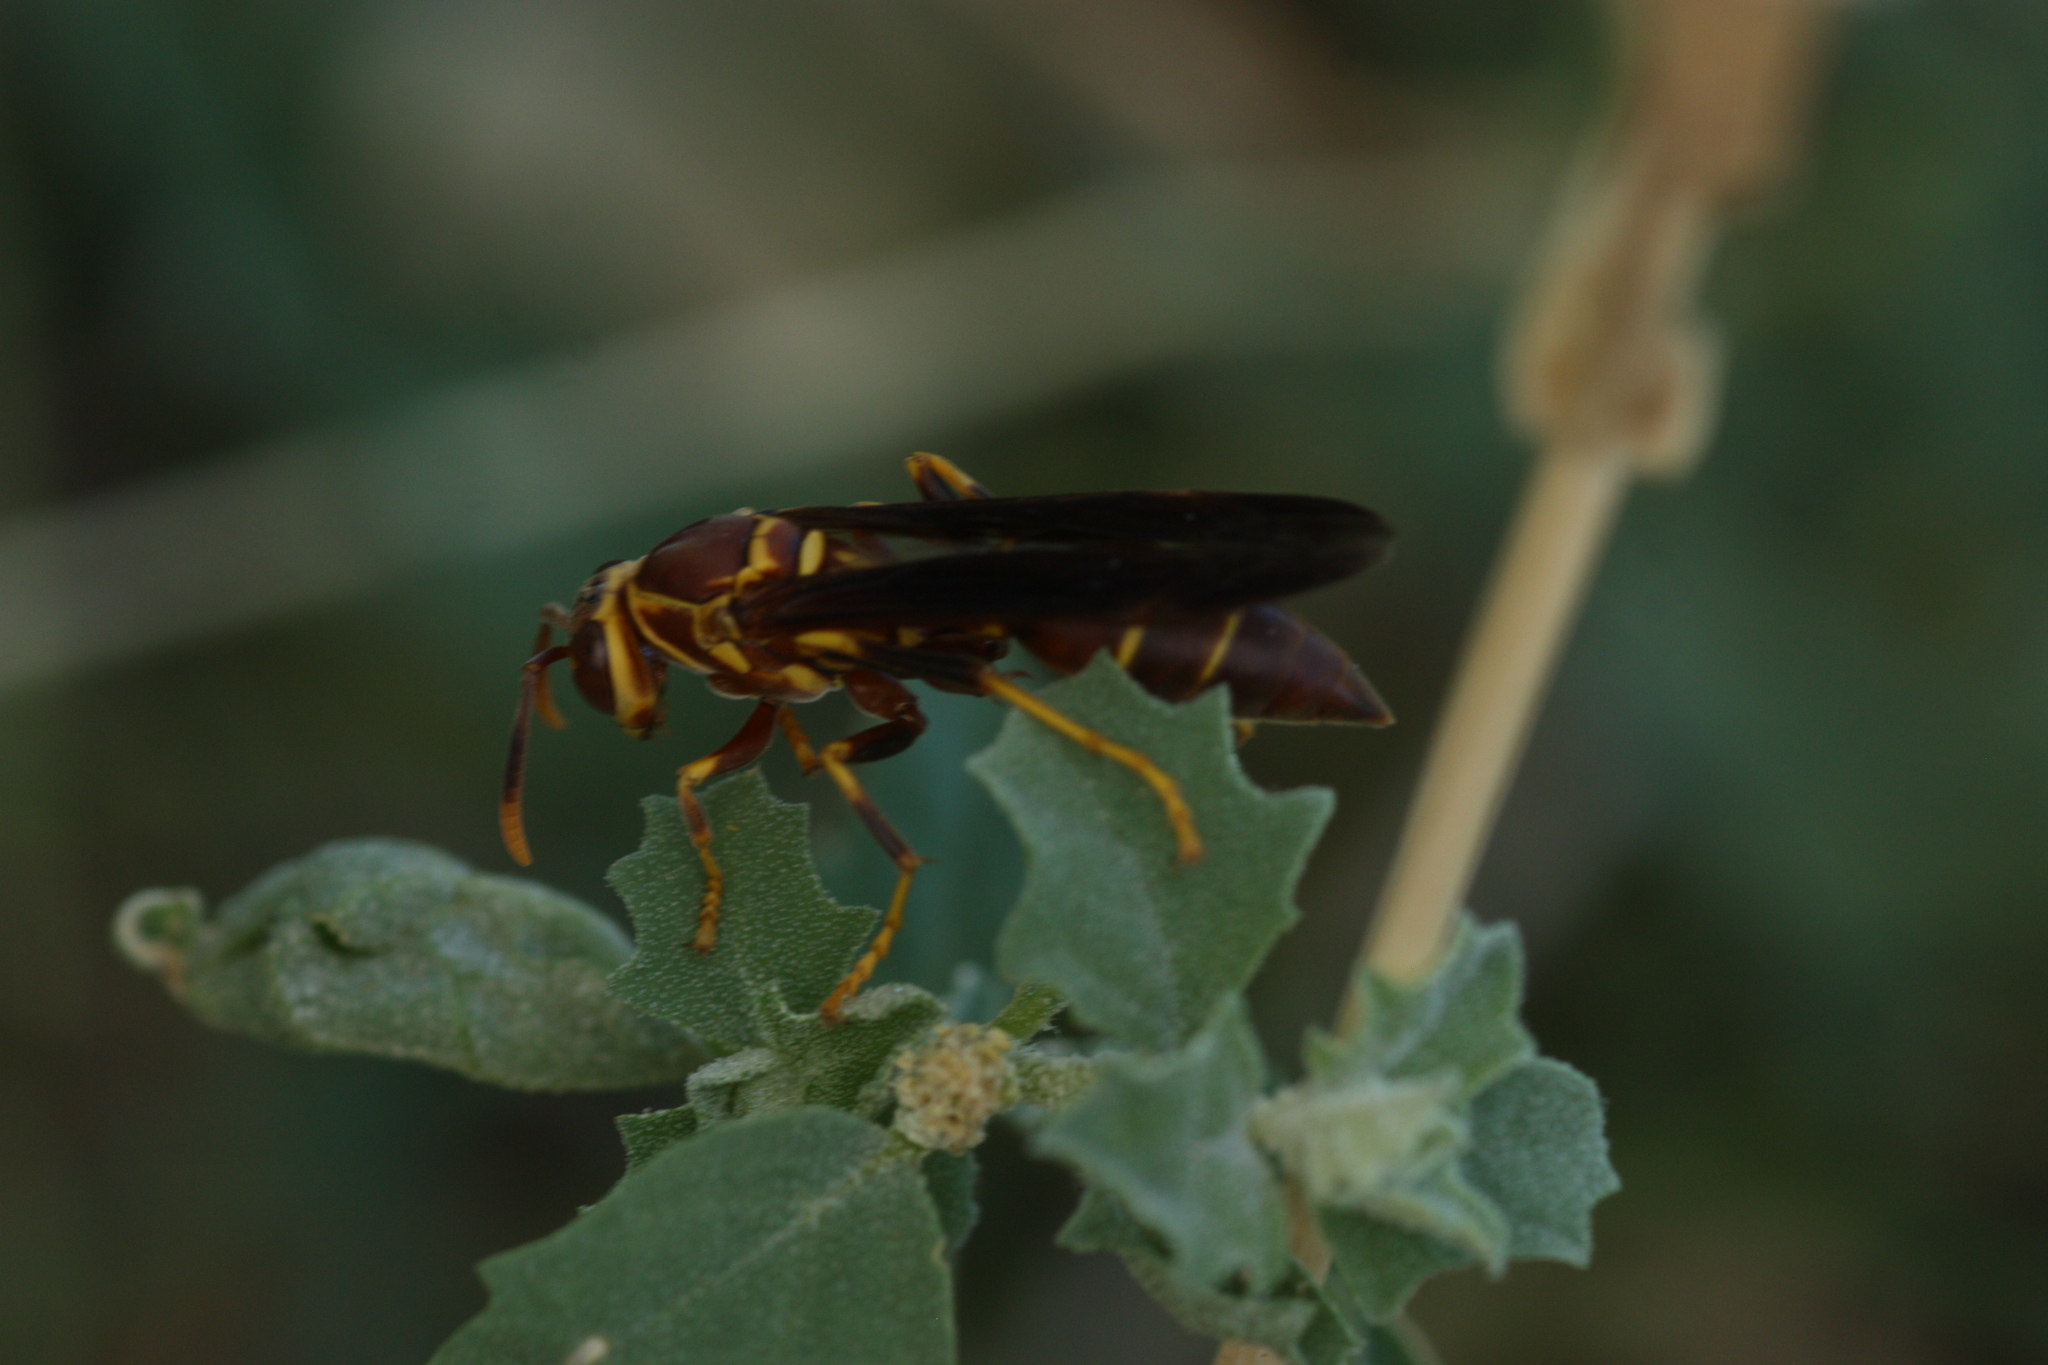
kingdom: Animalia
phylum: Arthropoda
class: Insecta
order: Hymenoptera
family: Eumenidae
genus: Polistes
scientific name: Polistes arizonensis
